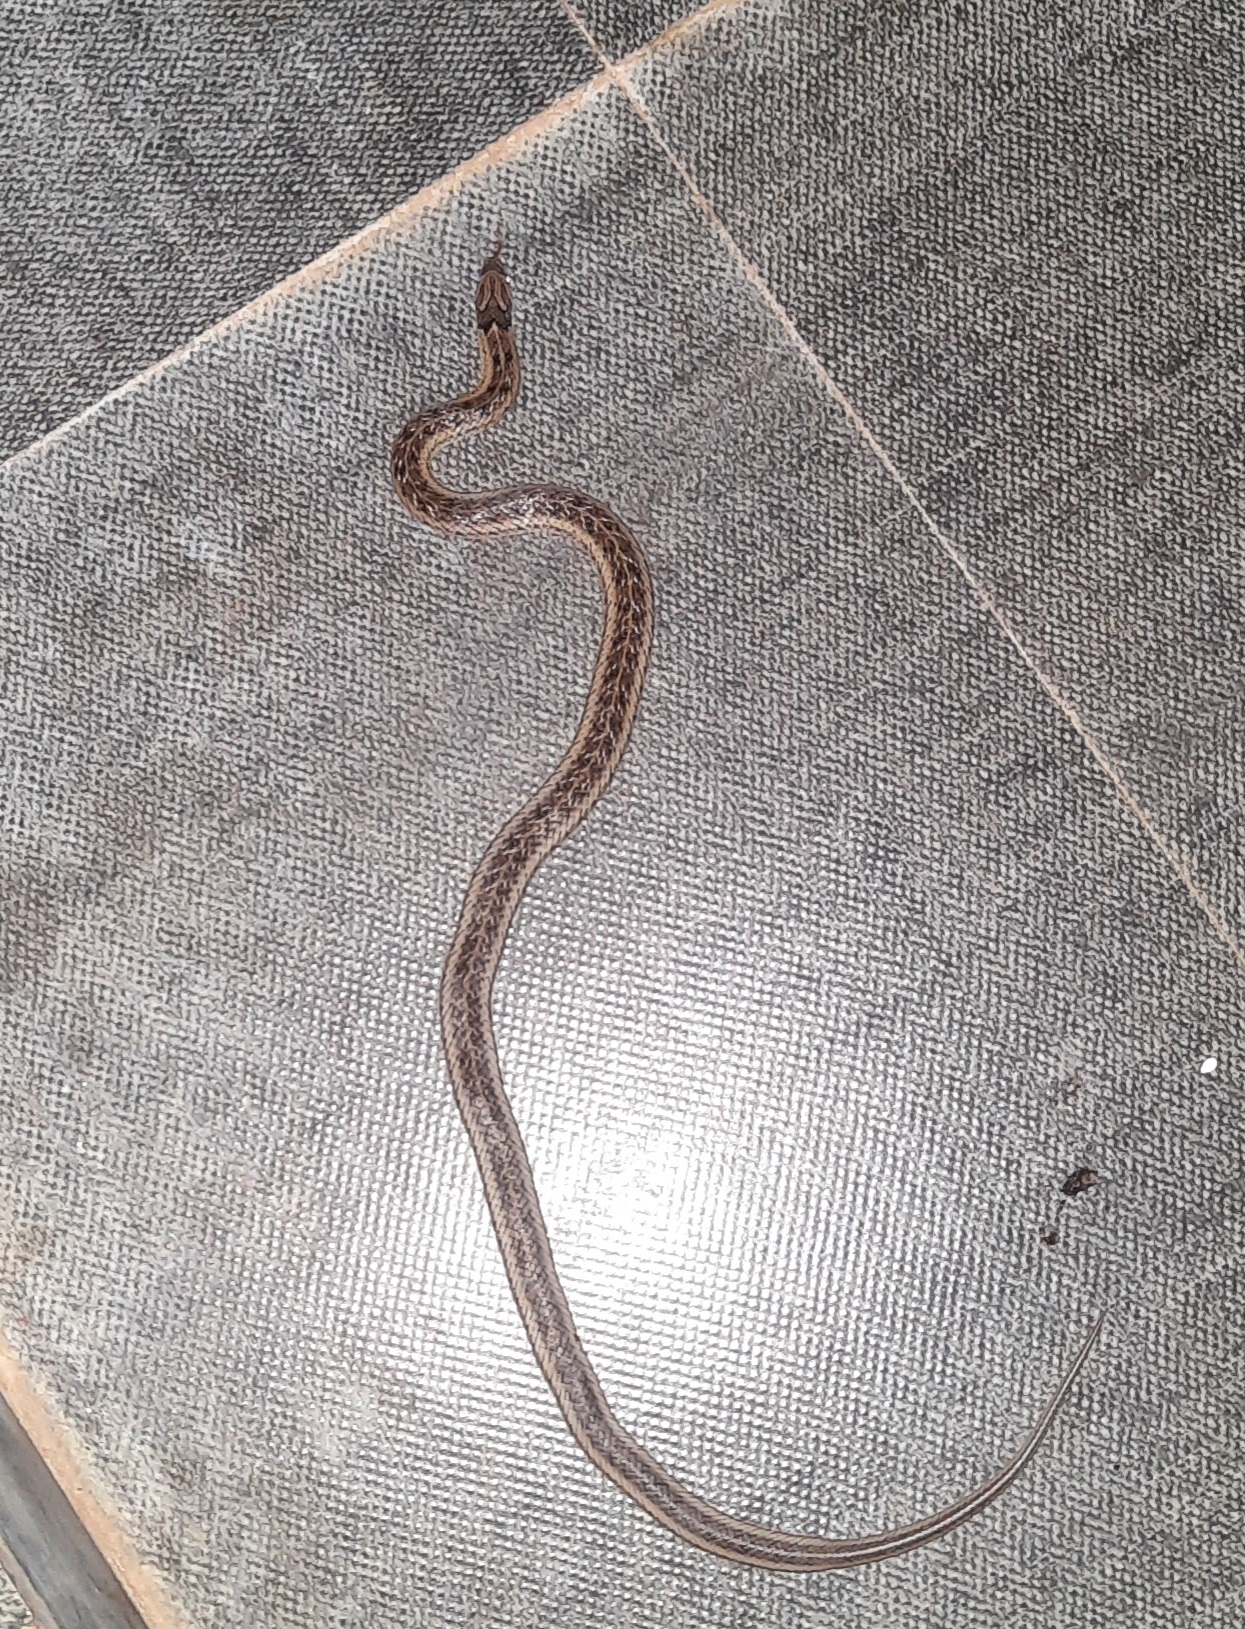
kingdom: Animalia
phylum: Chordata
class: Squamata
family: Colubridae
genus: Oligodon
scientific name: Oligodon taeniolatus
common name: Loos snake
